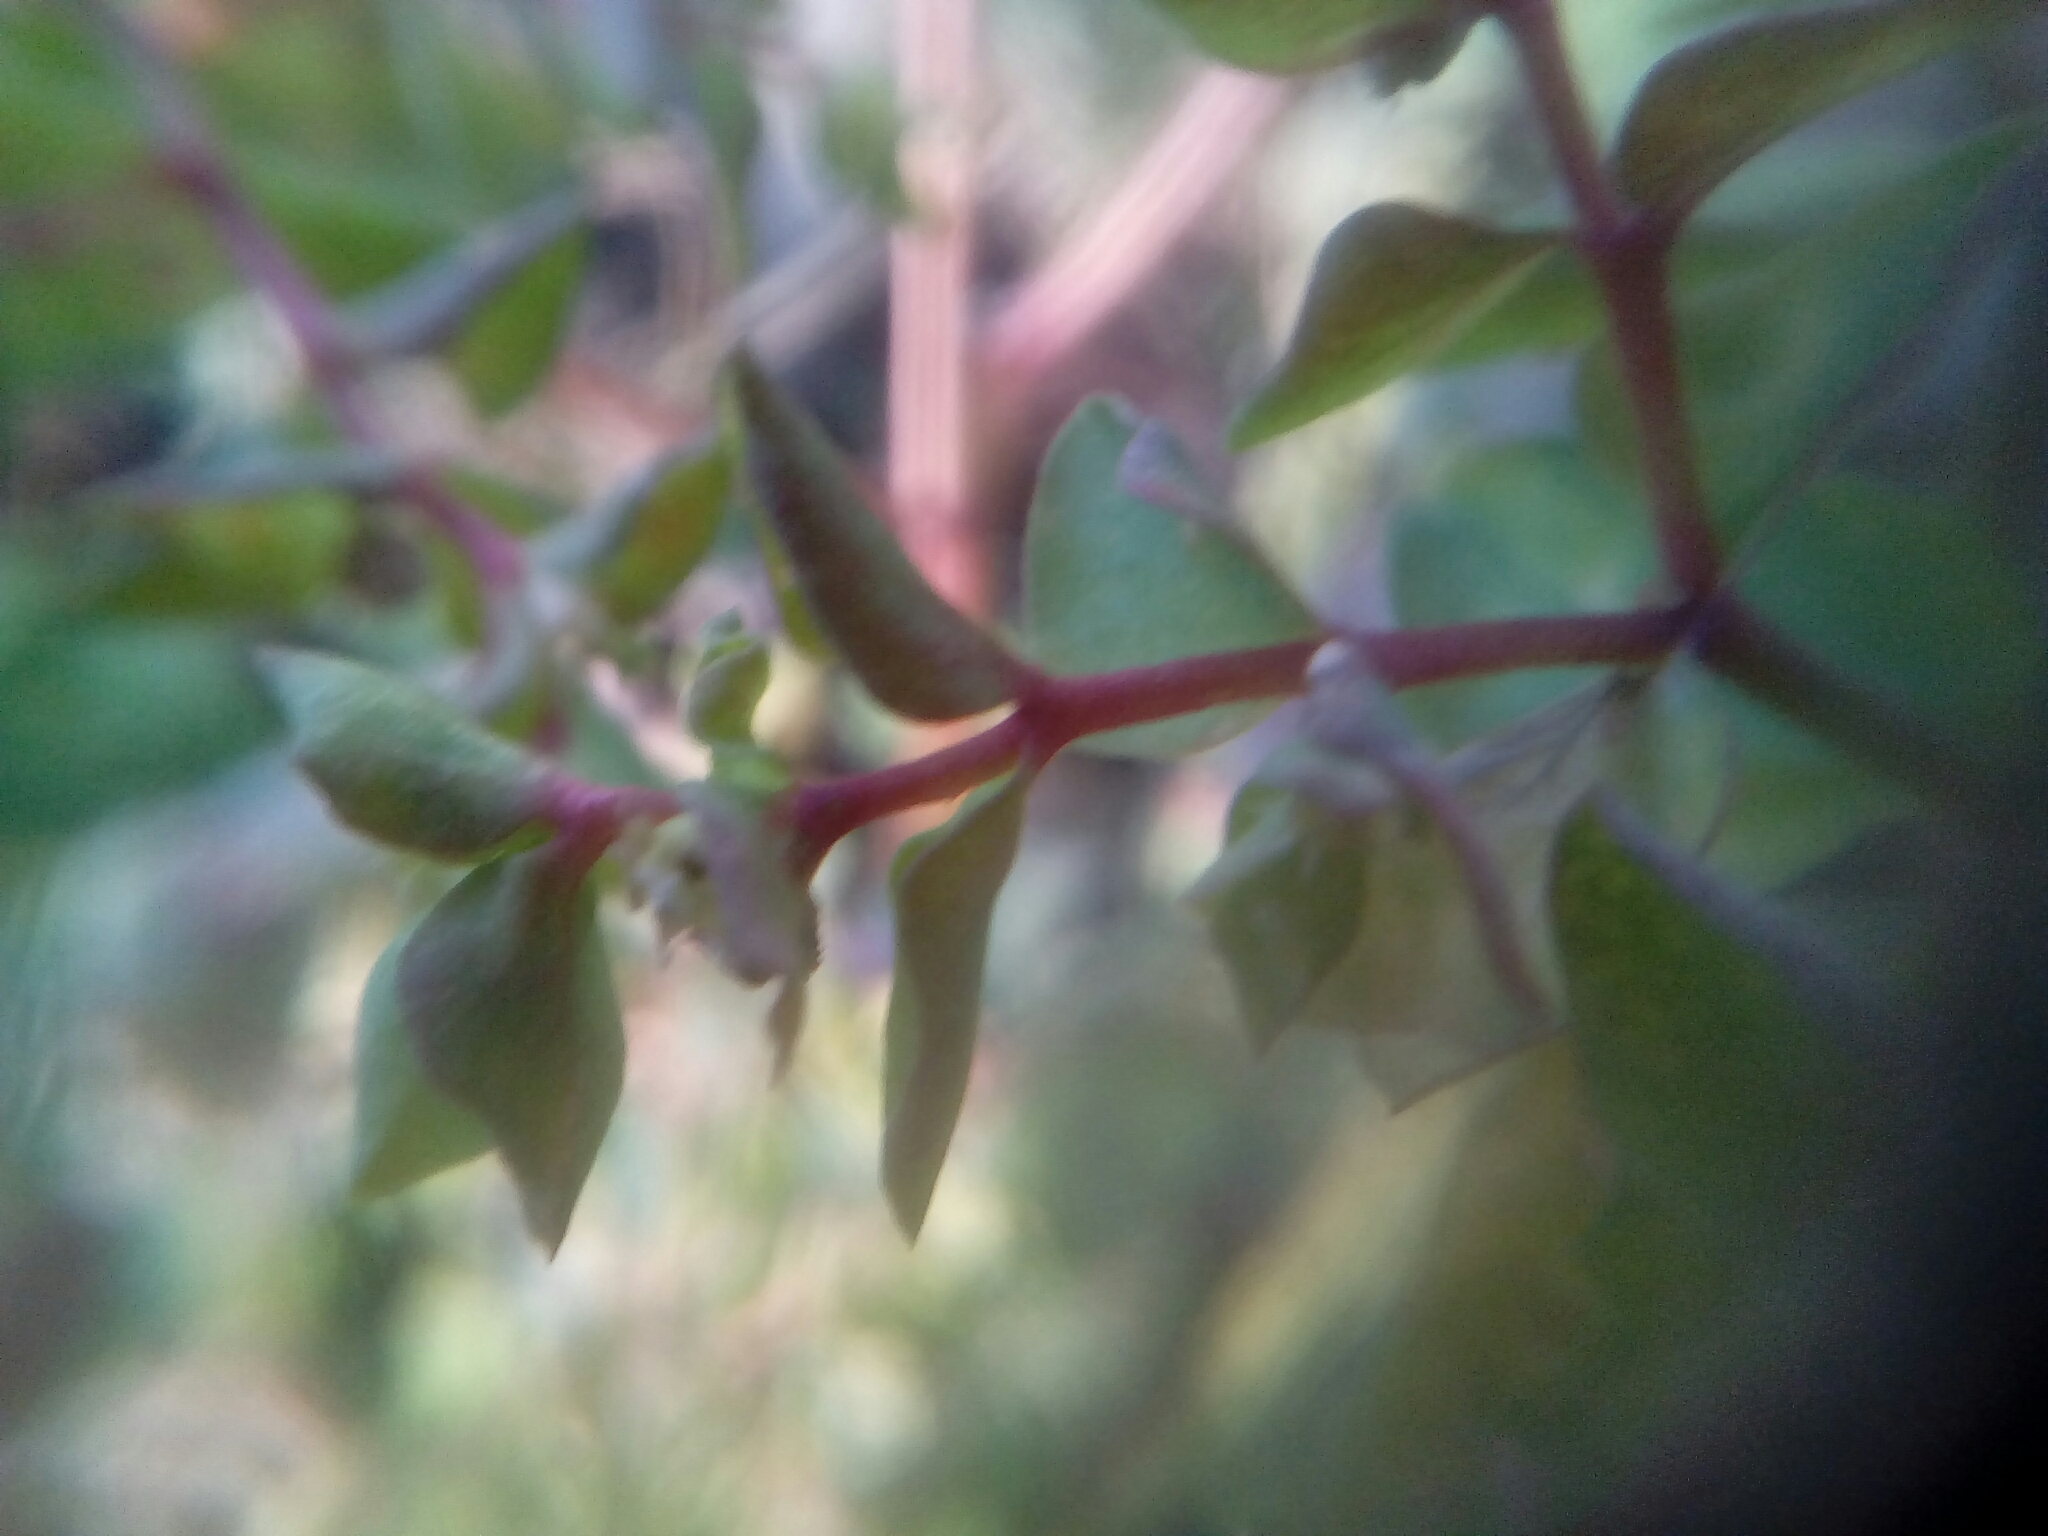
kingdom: Plantae
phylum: Tracheophyta
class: Magnoliopsida
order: Malpighiales
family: Euphorbiaceae
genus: Euphorbia
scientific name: Euphorbia peplus
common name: Petty spurge
